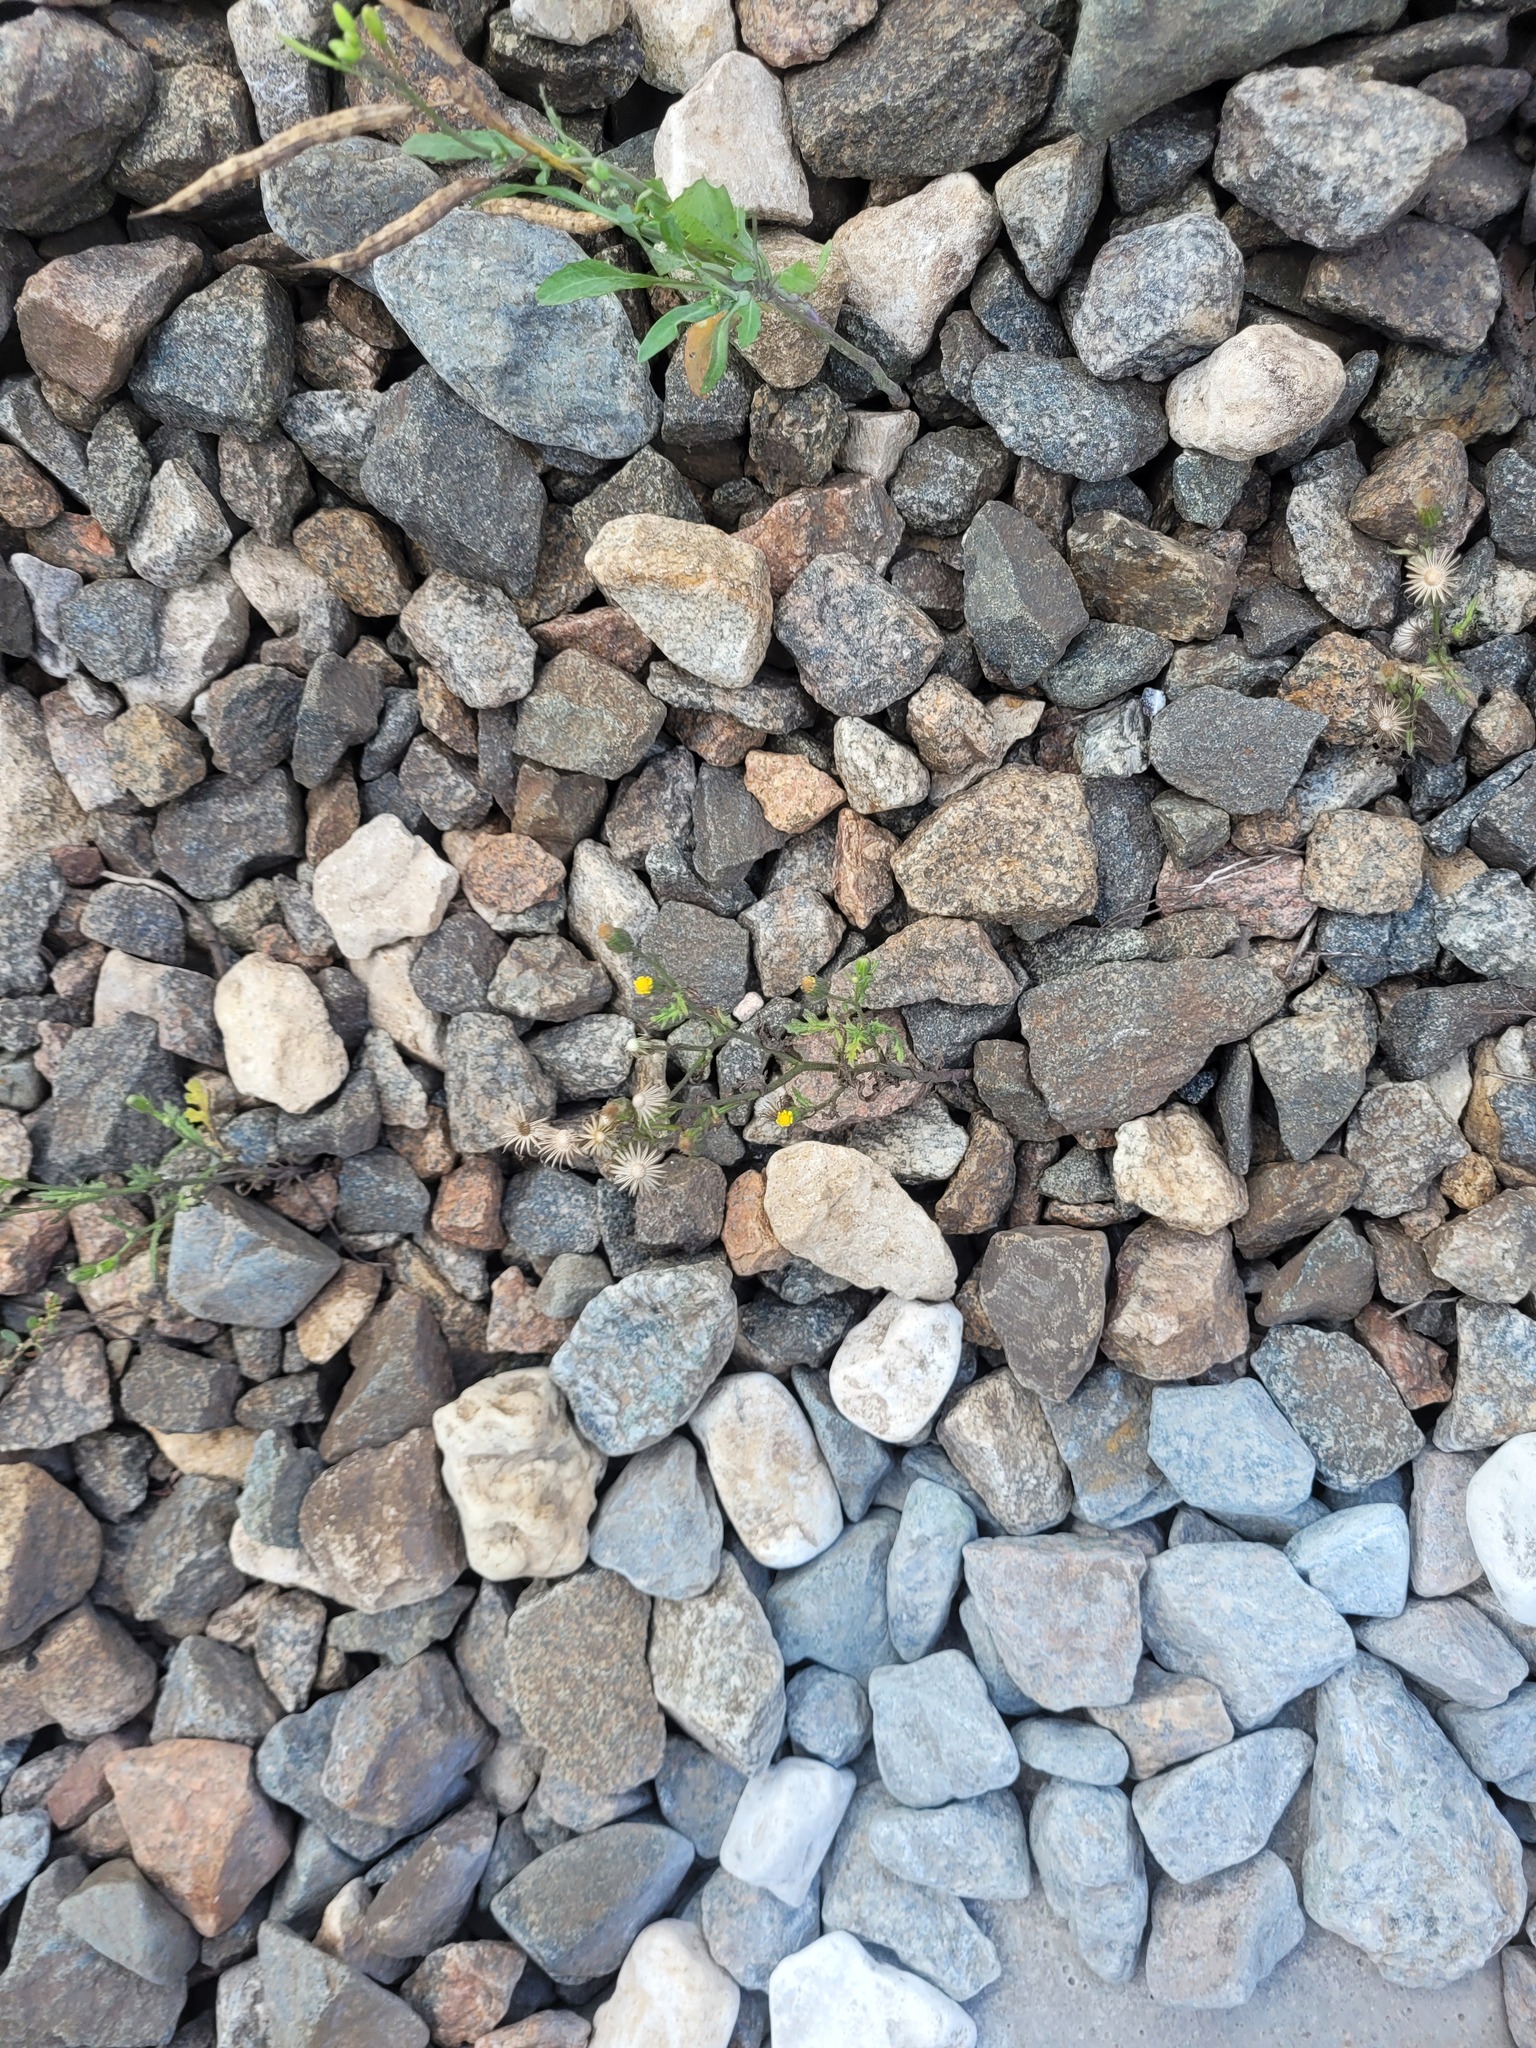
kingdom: Plantae
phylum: Tracheophyta
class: Magnoliopsida
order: Asterales
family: Asteraceae
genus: Senecio
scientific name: Senecio viscosus
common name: Sticky groundsel
